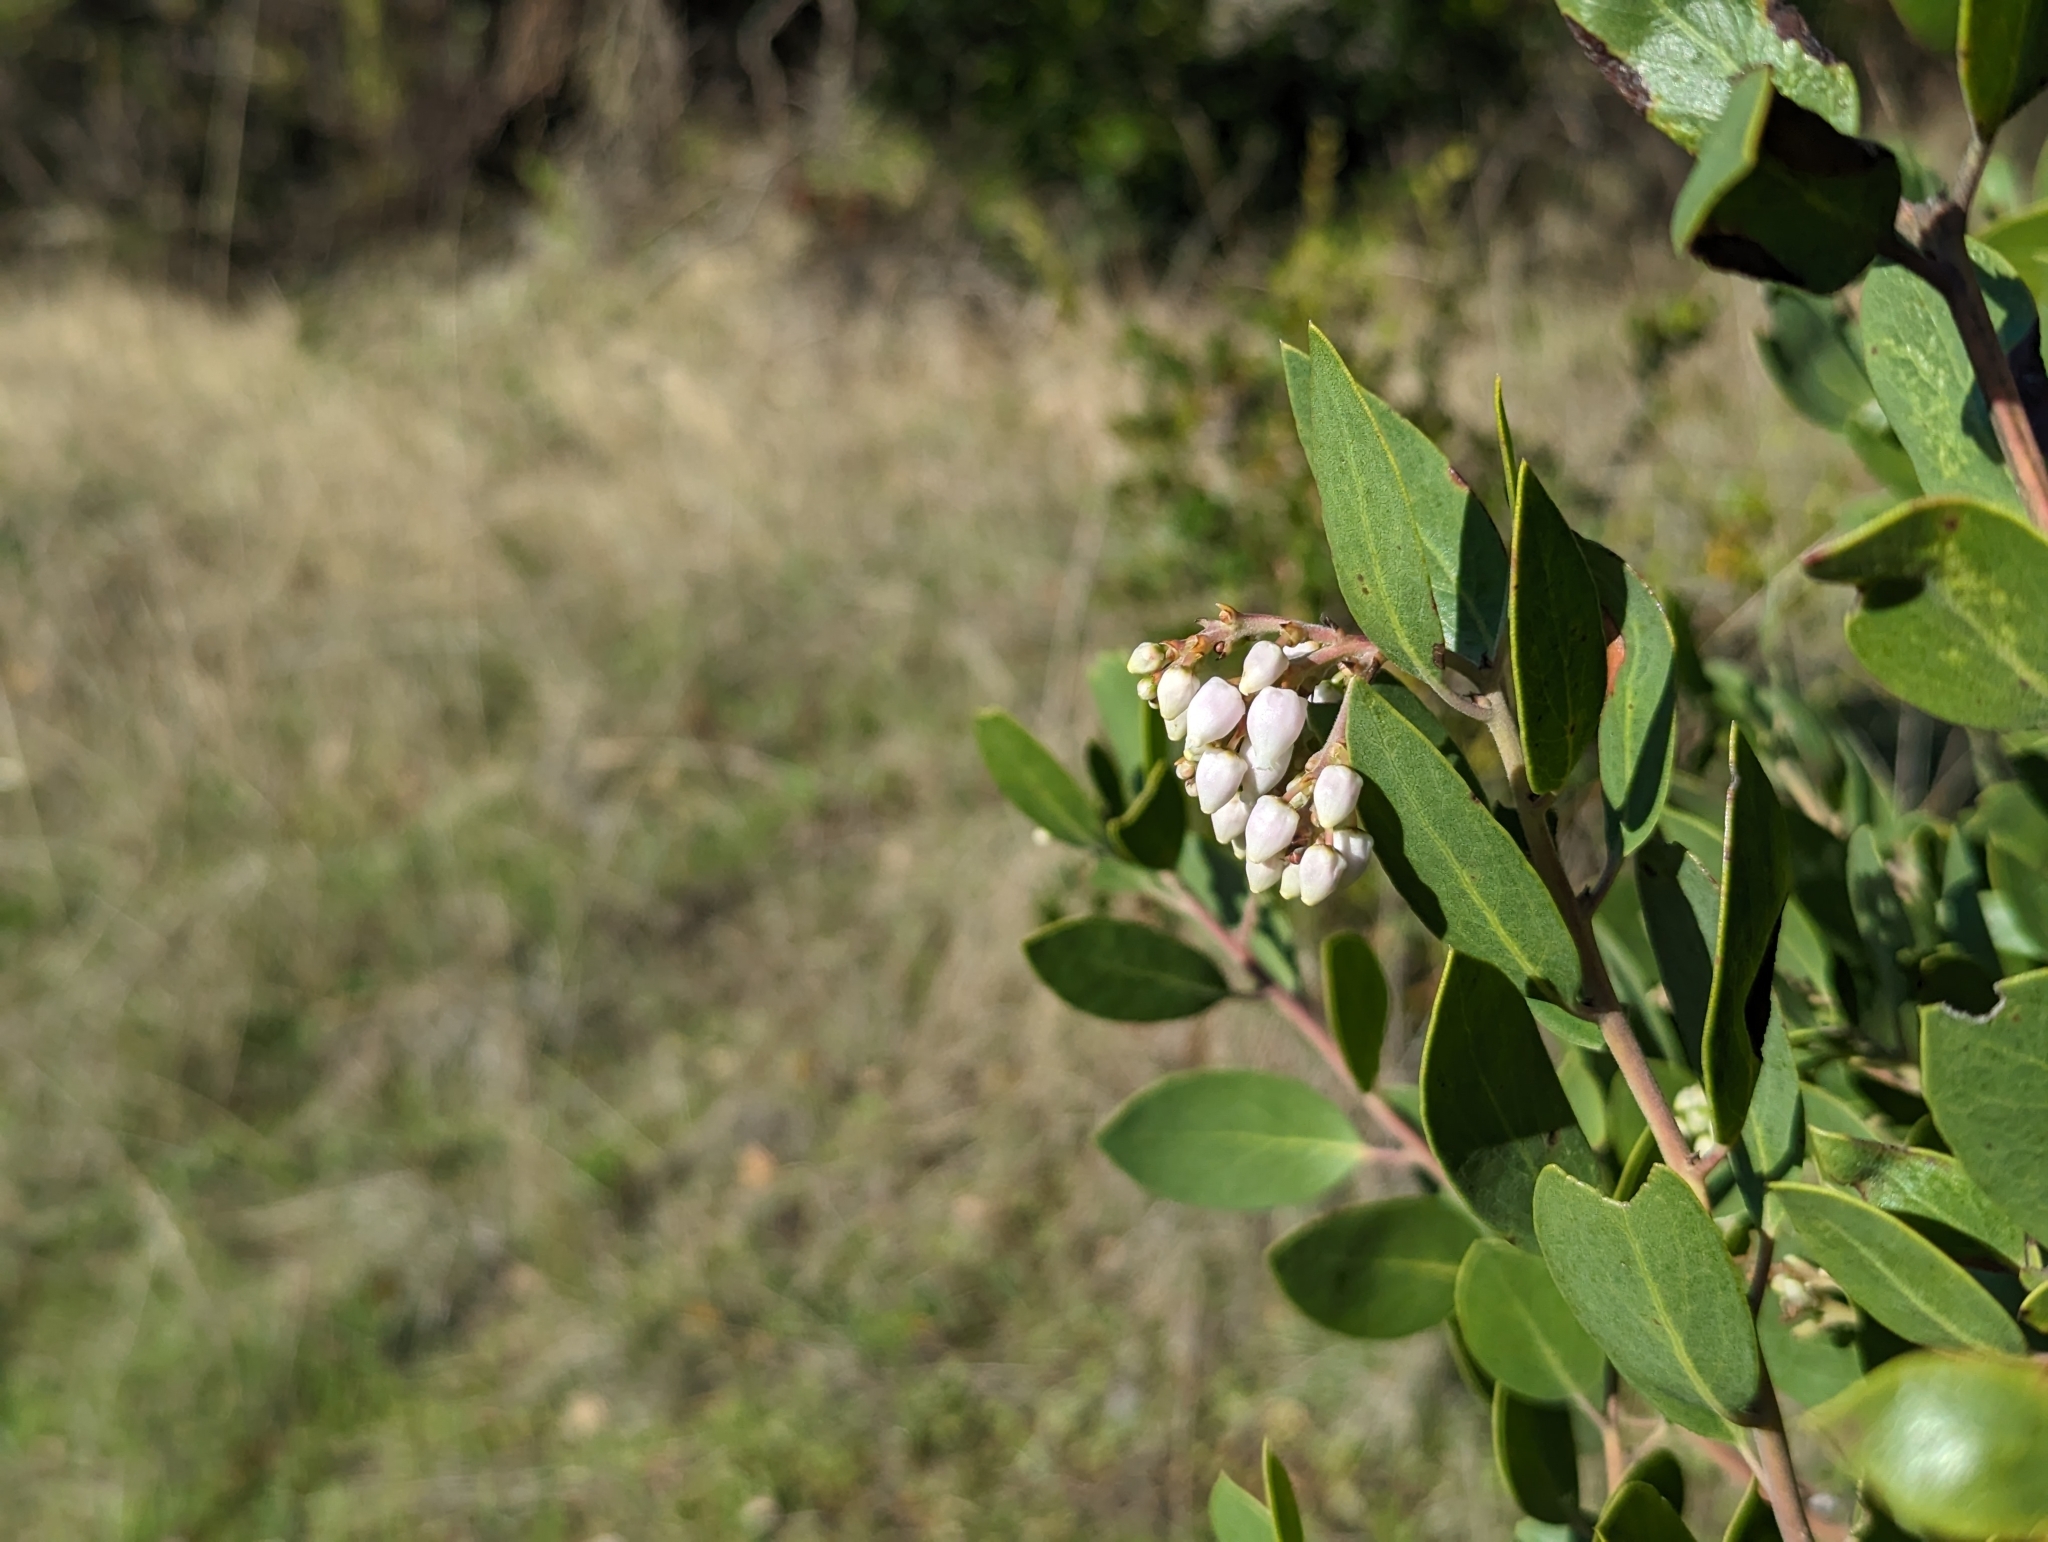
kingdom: Plantae
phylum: Tracheophyta
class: Magnoliopsida
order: Ericales
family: Ericaceae
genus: Arctostaphylos
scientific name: Arctostaphylos manzanita
